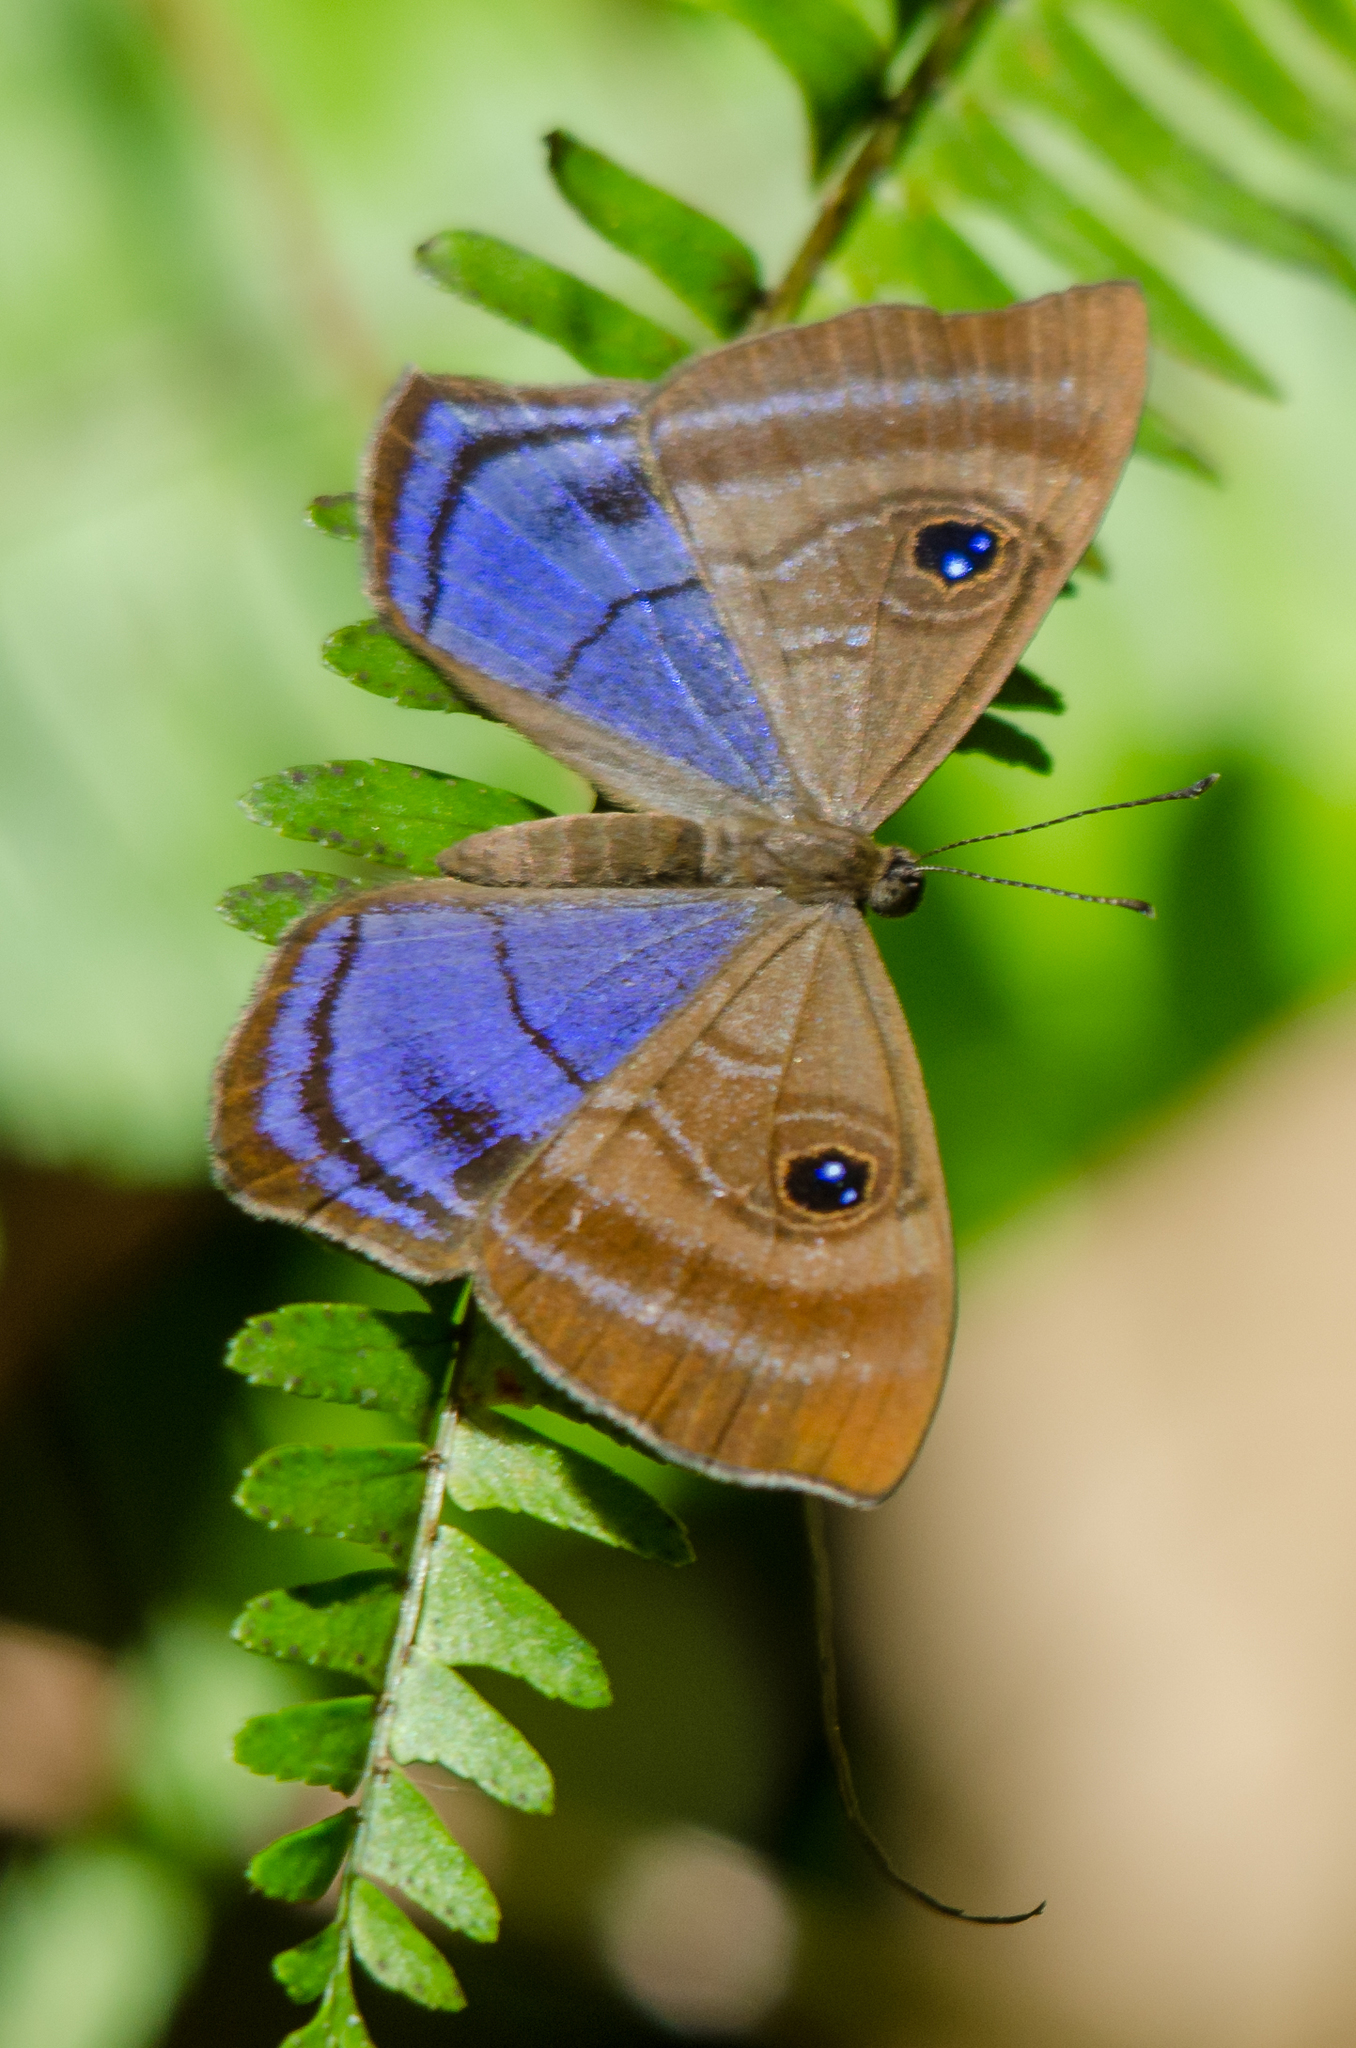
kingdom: Animalia
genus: Mesosemia
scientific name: Mesosemia lamachus
